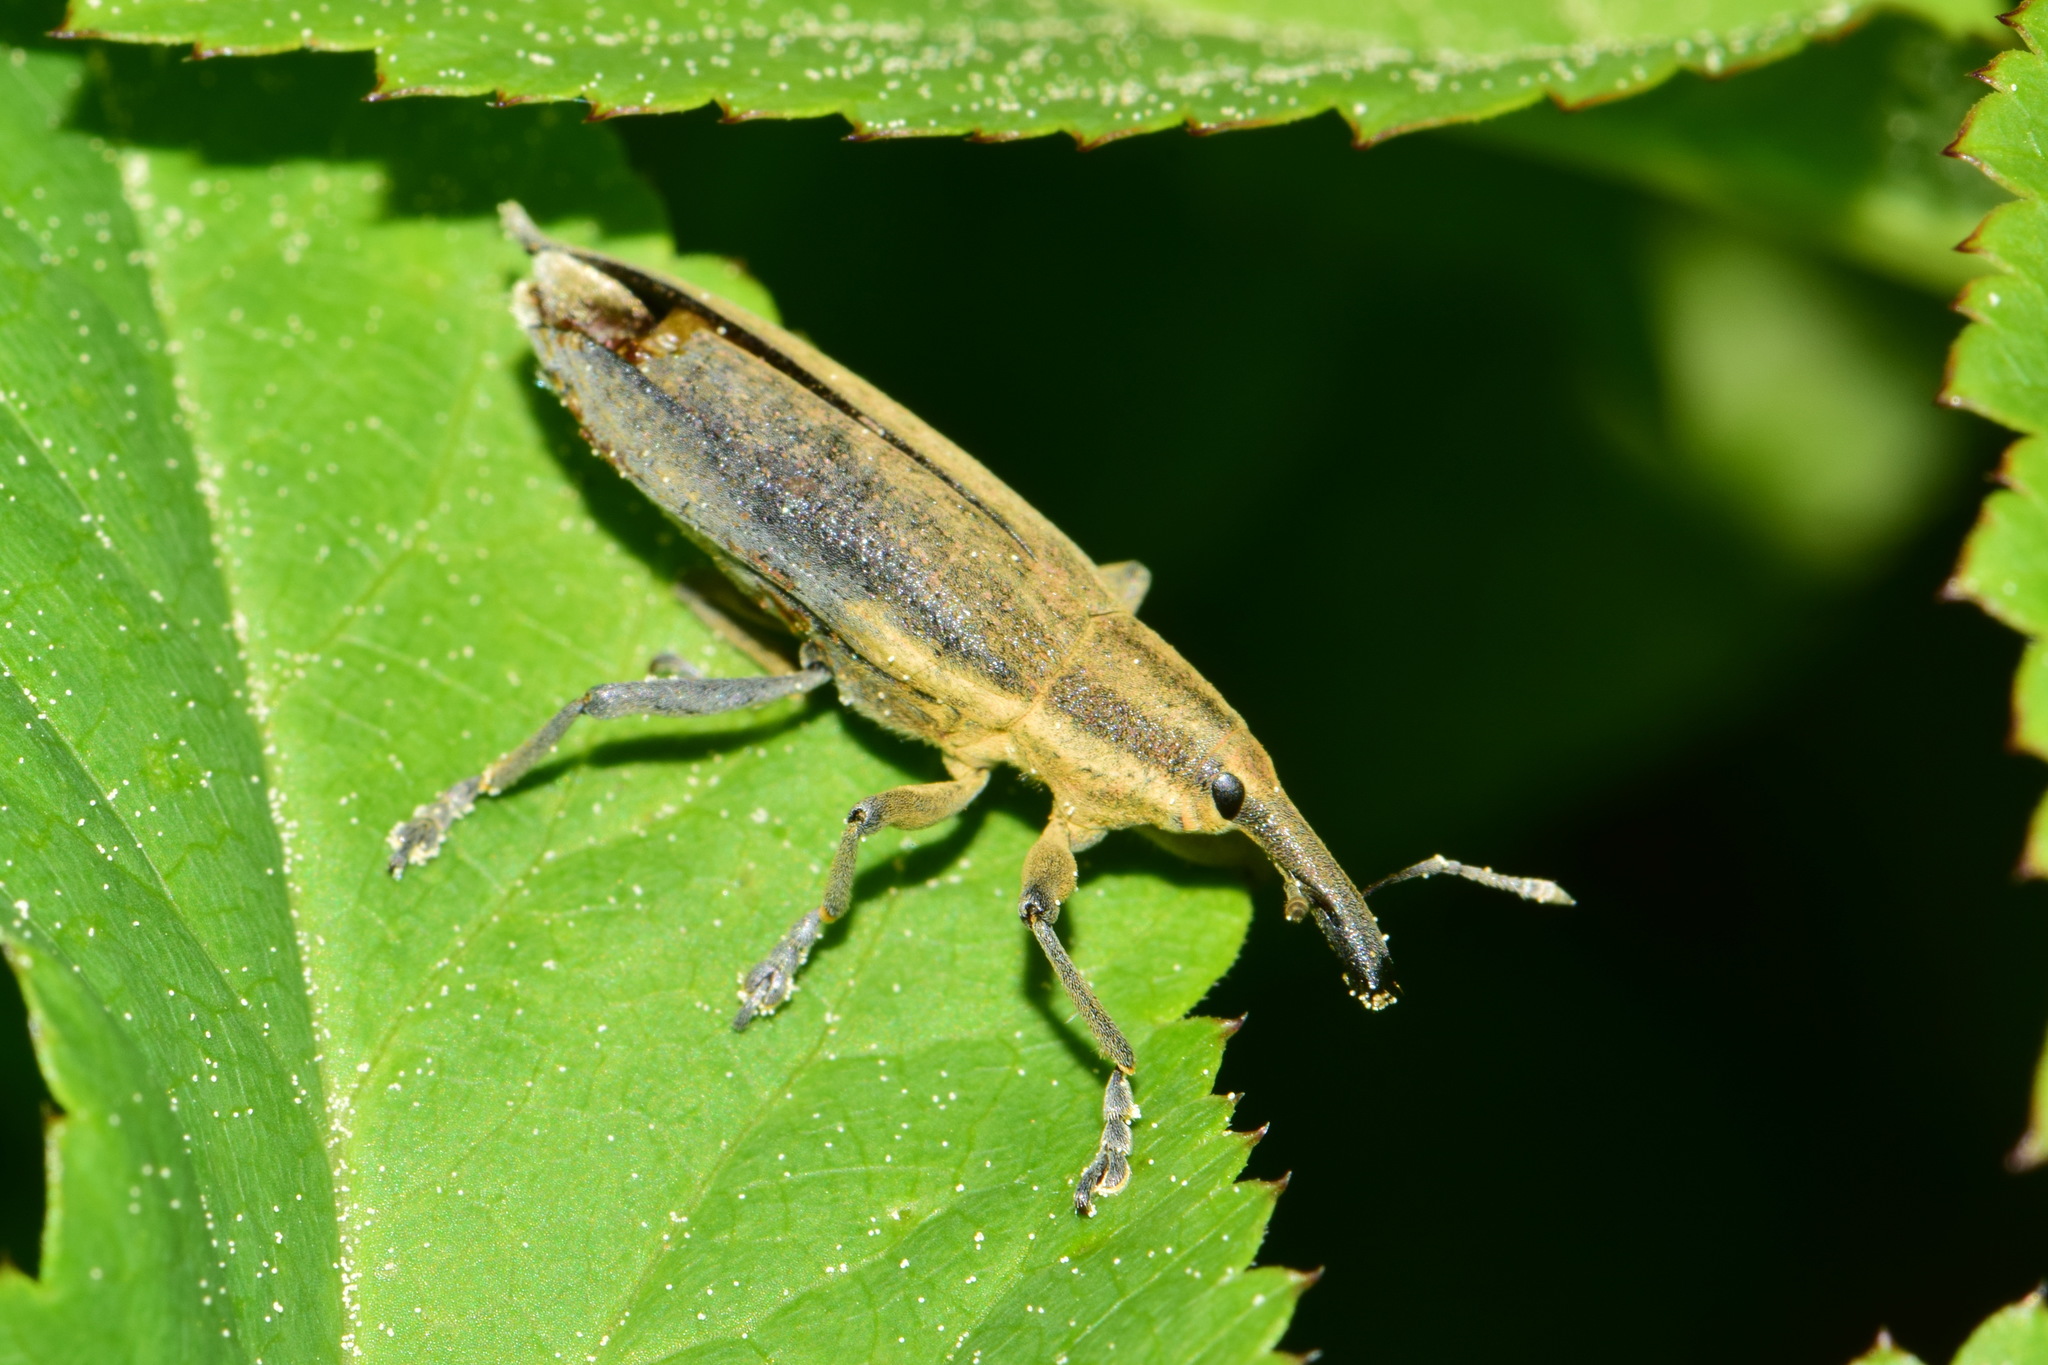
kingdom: Animalia
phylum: Arthropoda
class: Insecta
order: Coleoptera
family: Curculionidae
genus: Lixus
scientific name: Lixus iridis
